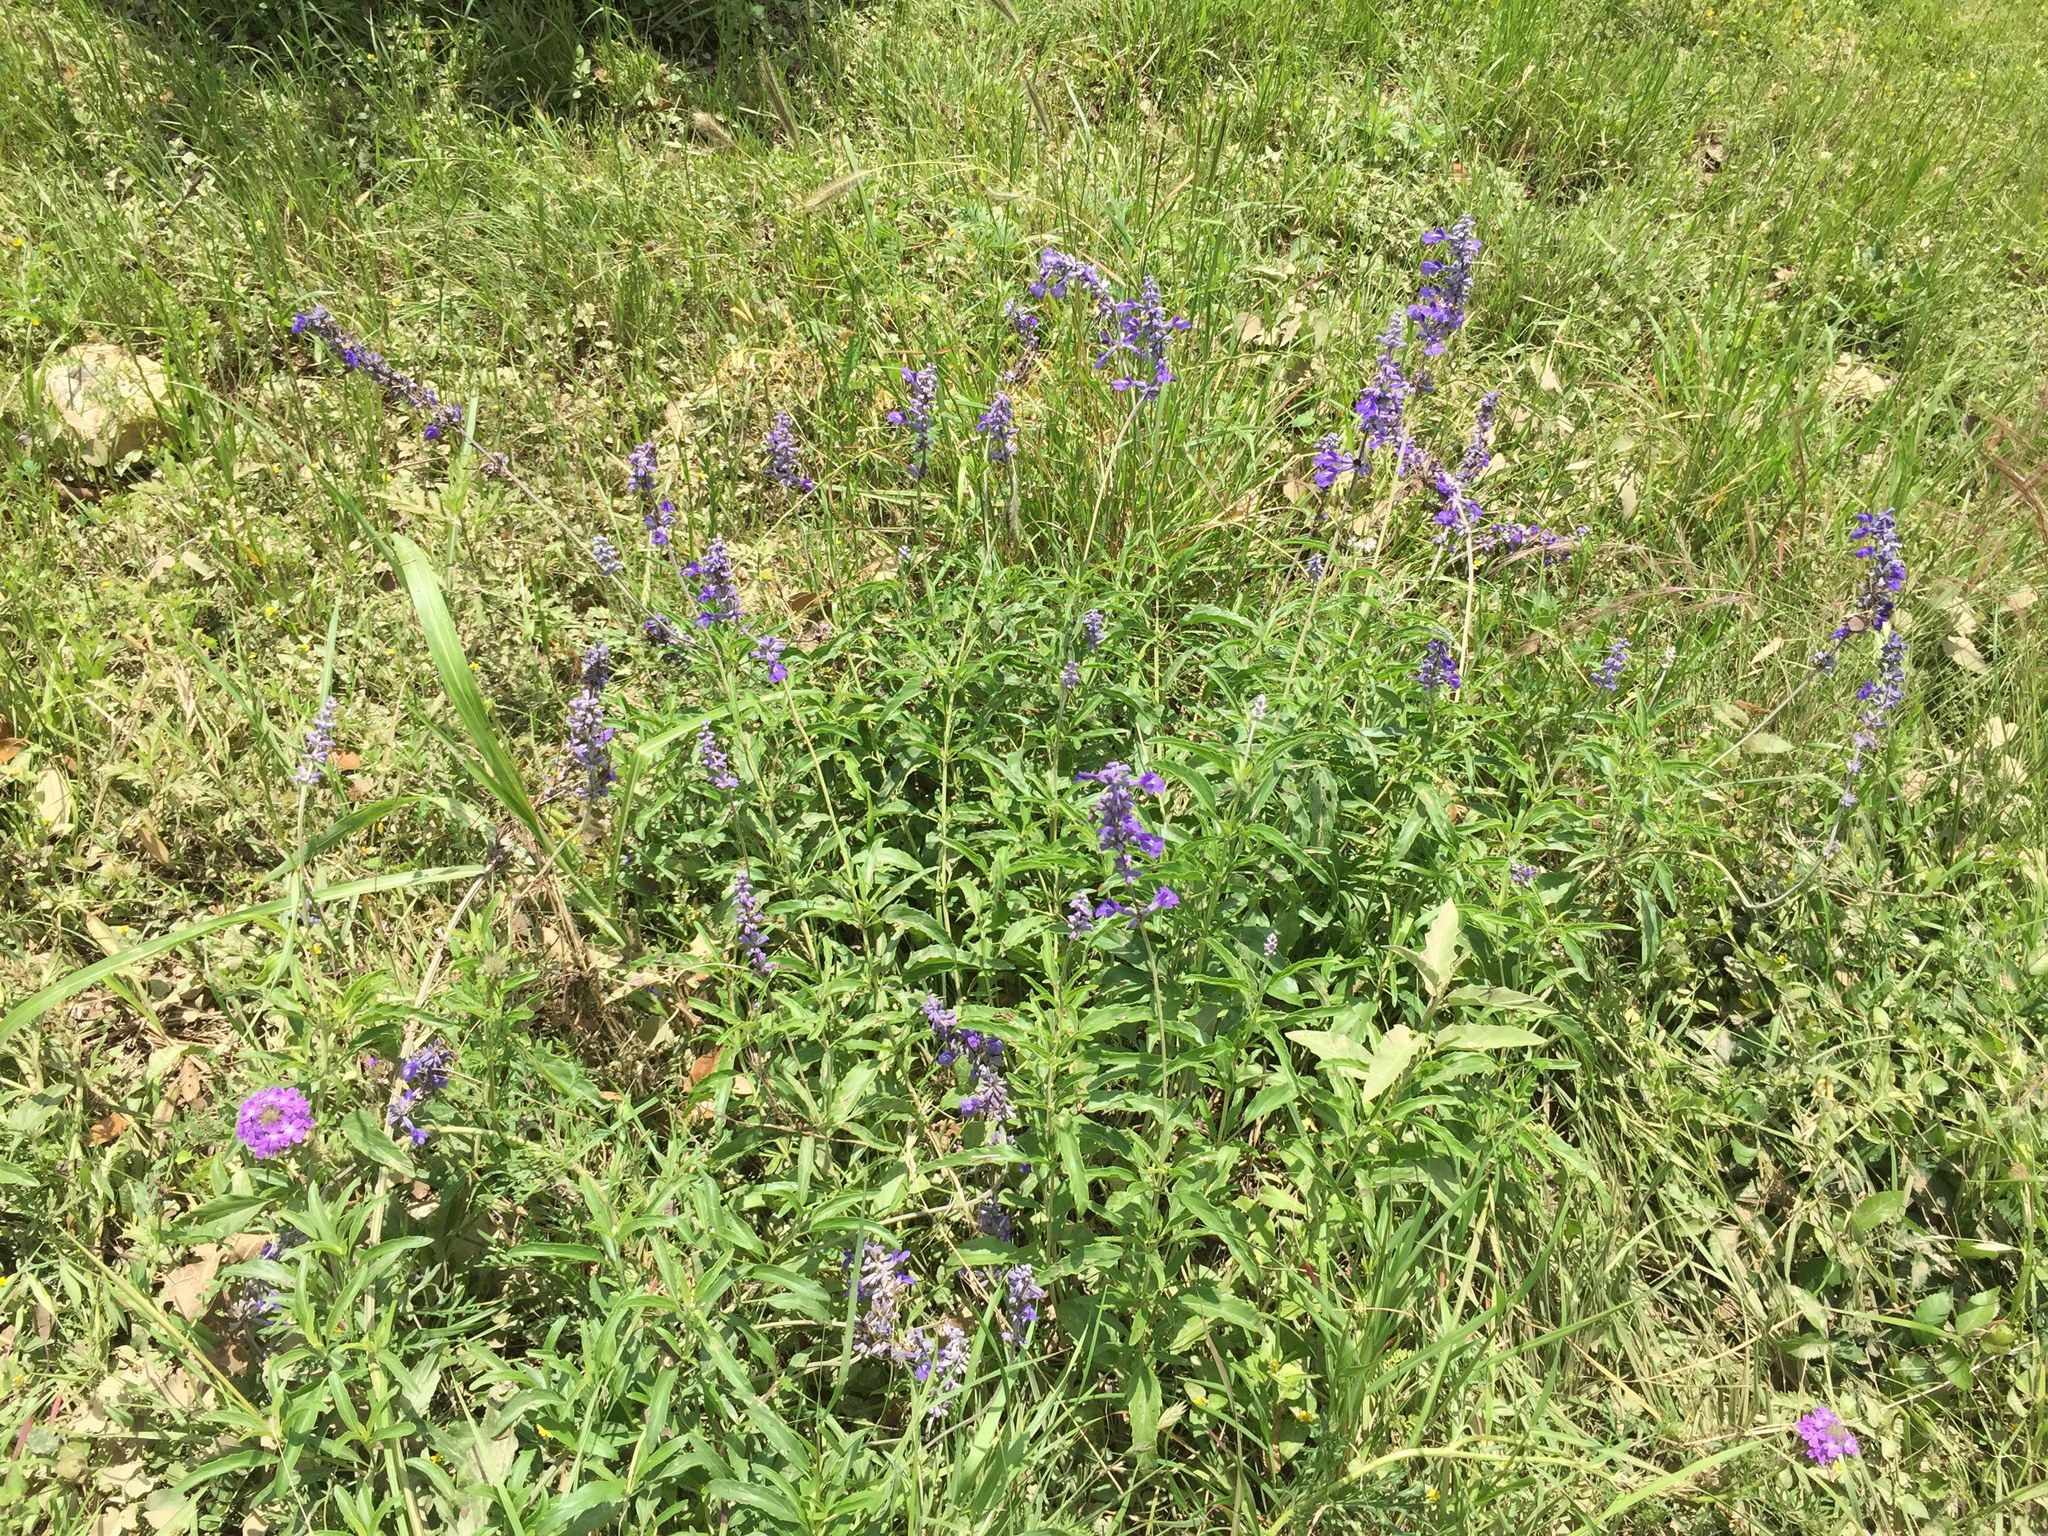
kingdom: Plantae
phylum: Tracheophyta
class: Magnoliopsida
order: Lamiales
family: Lamiaceae
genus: Salvia
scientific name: Salvia farinacea
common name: Mealy sage
